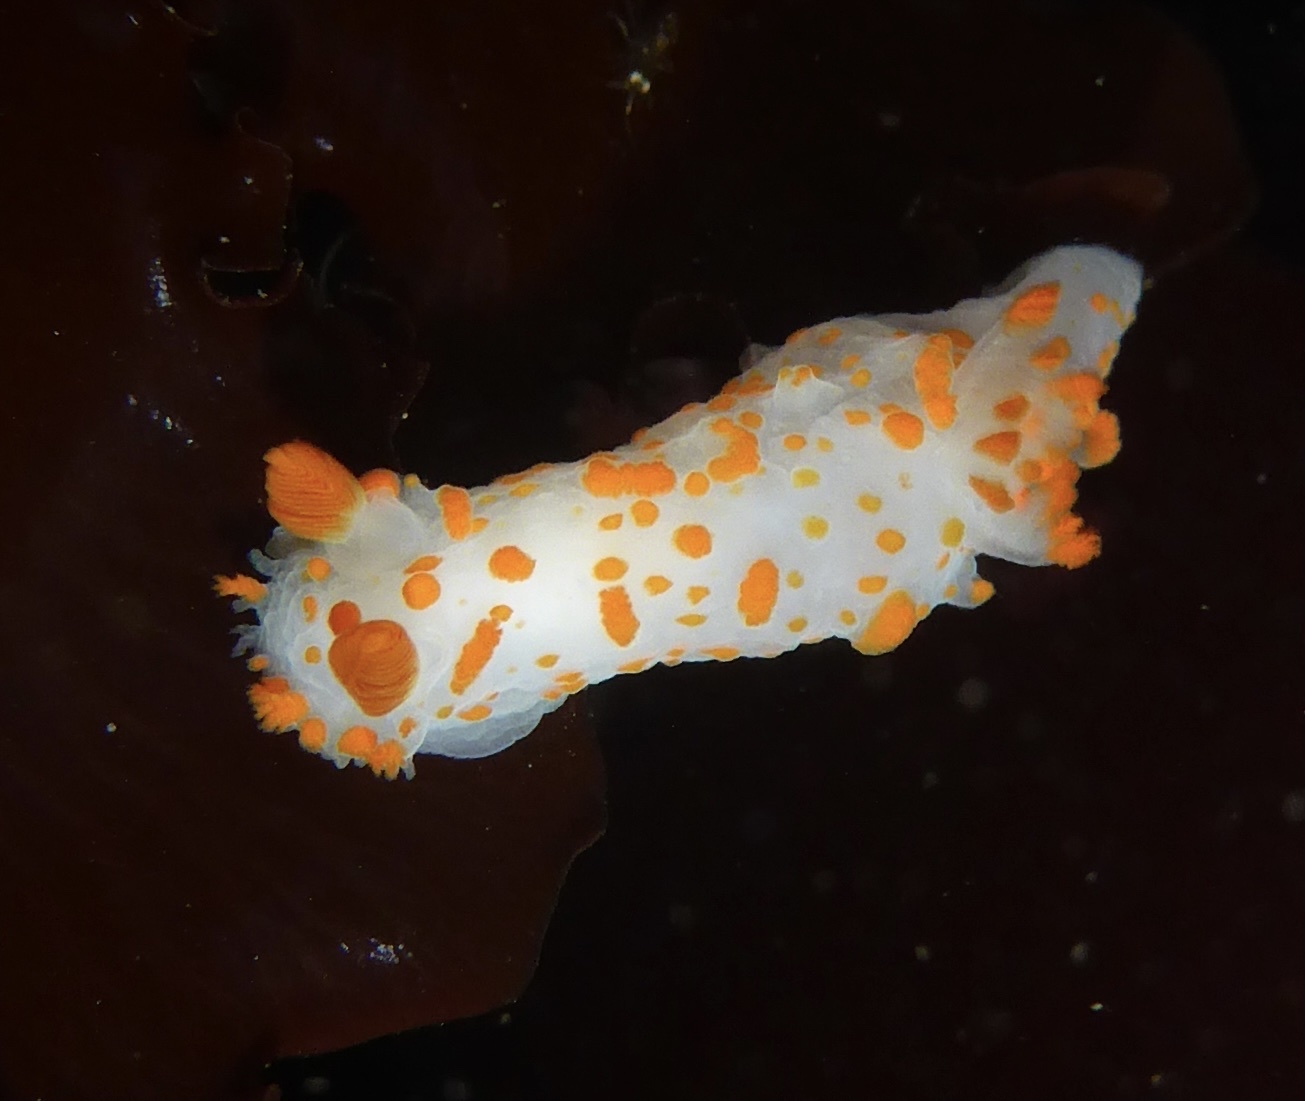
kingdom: Animalia
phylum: Mollusca
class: Gastropoda
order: Nudibranchia
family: Polyceridae
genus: Triopha
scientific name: Triopha catalinae
